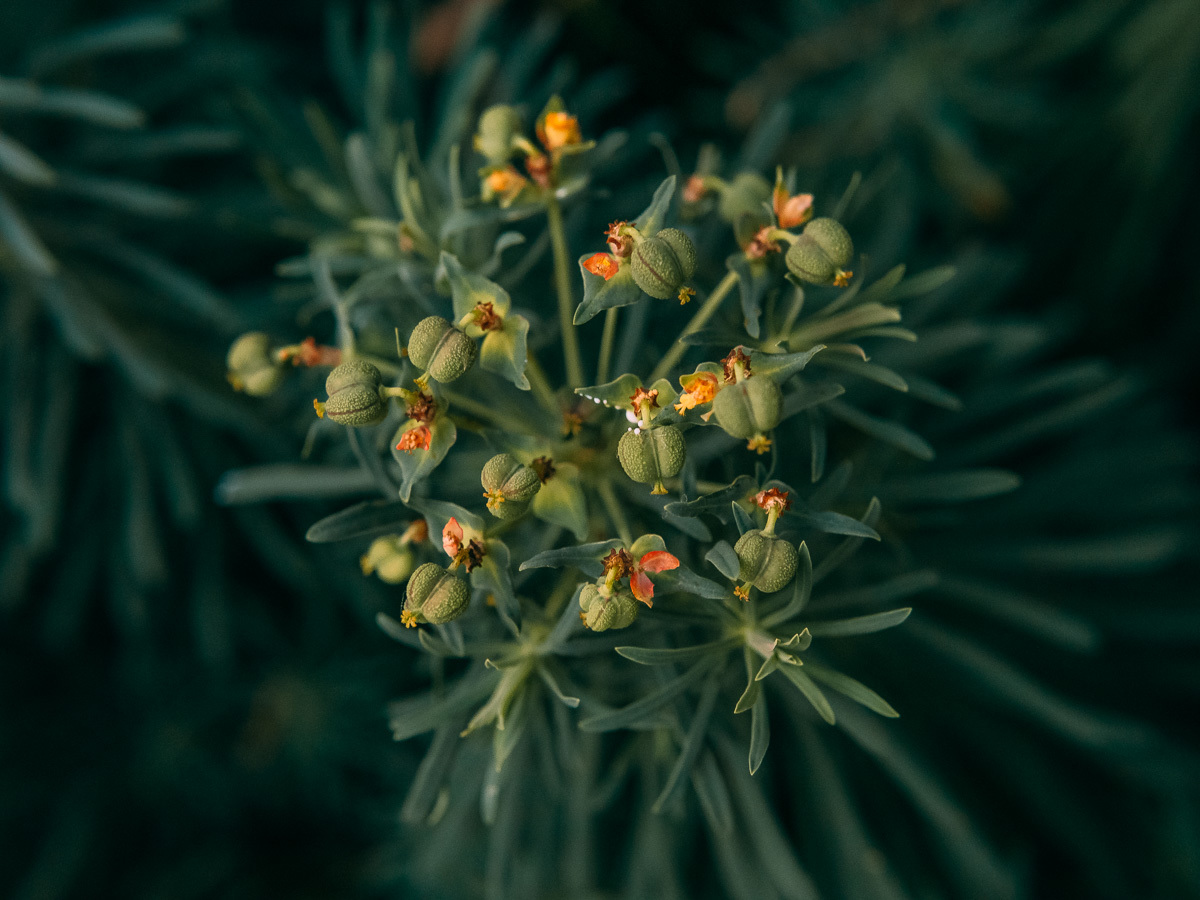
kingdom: Plantae
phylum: Tracheophyta
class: Magnoliopsida
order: Malpighiales
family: Euphorbiaceae
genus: Euphorbia
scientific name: Euphorbia cyparissias
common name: Cypress spurge
